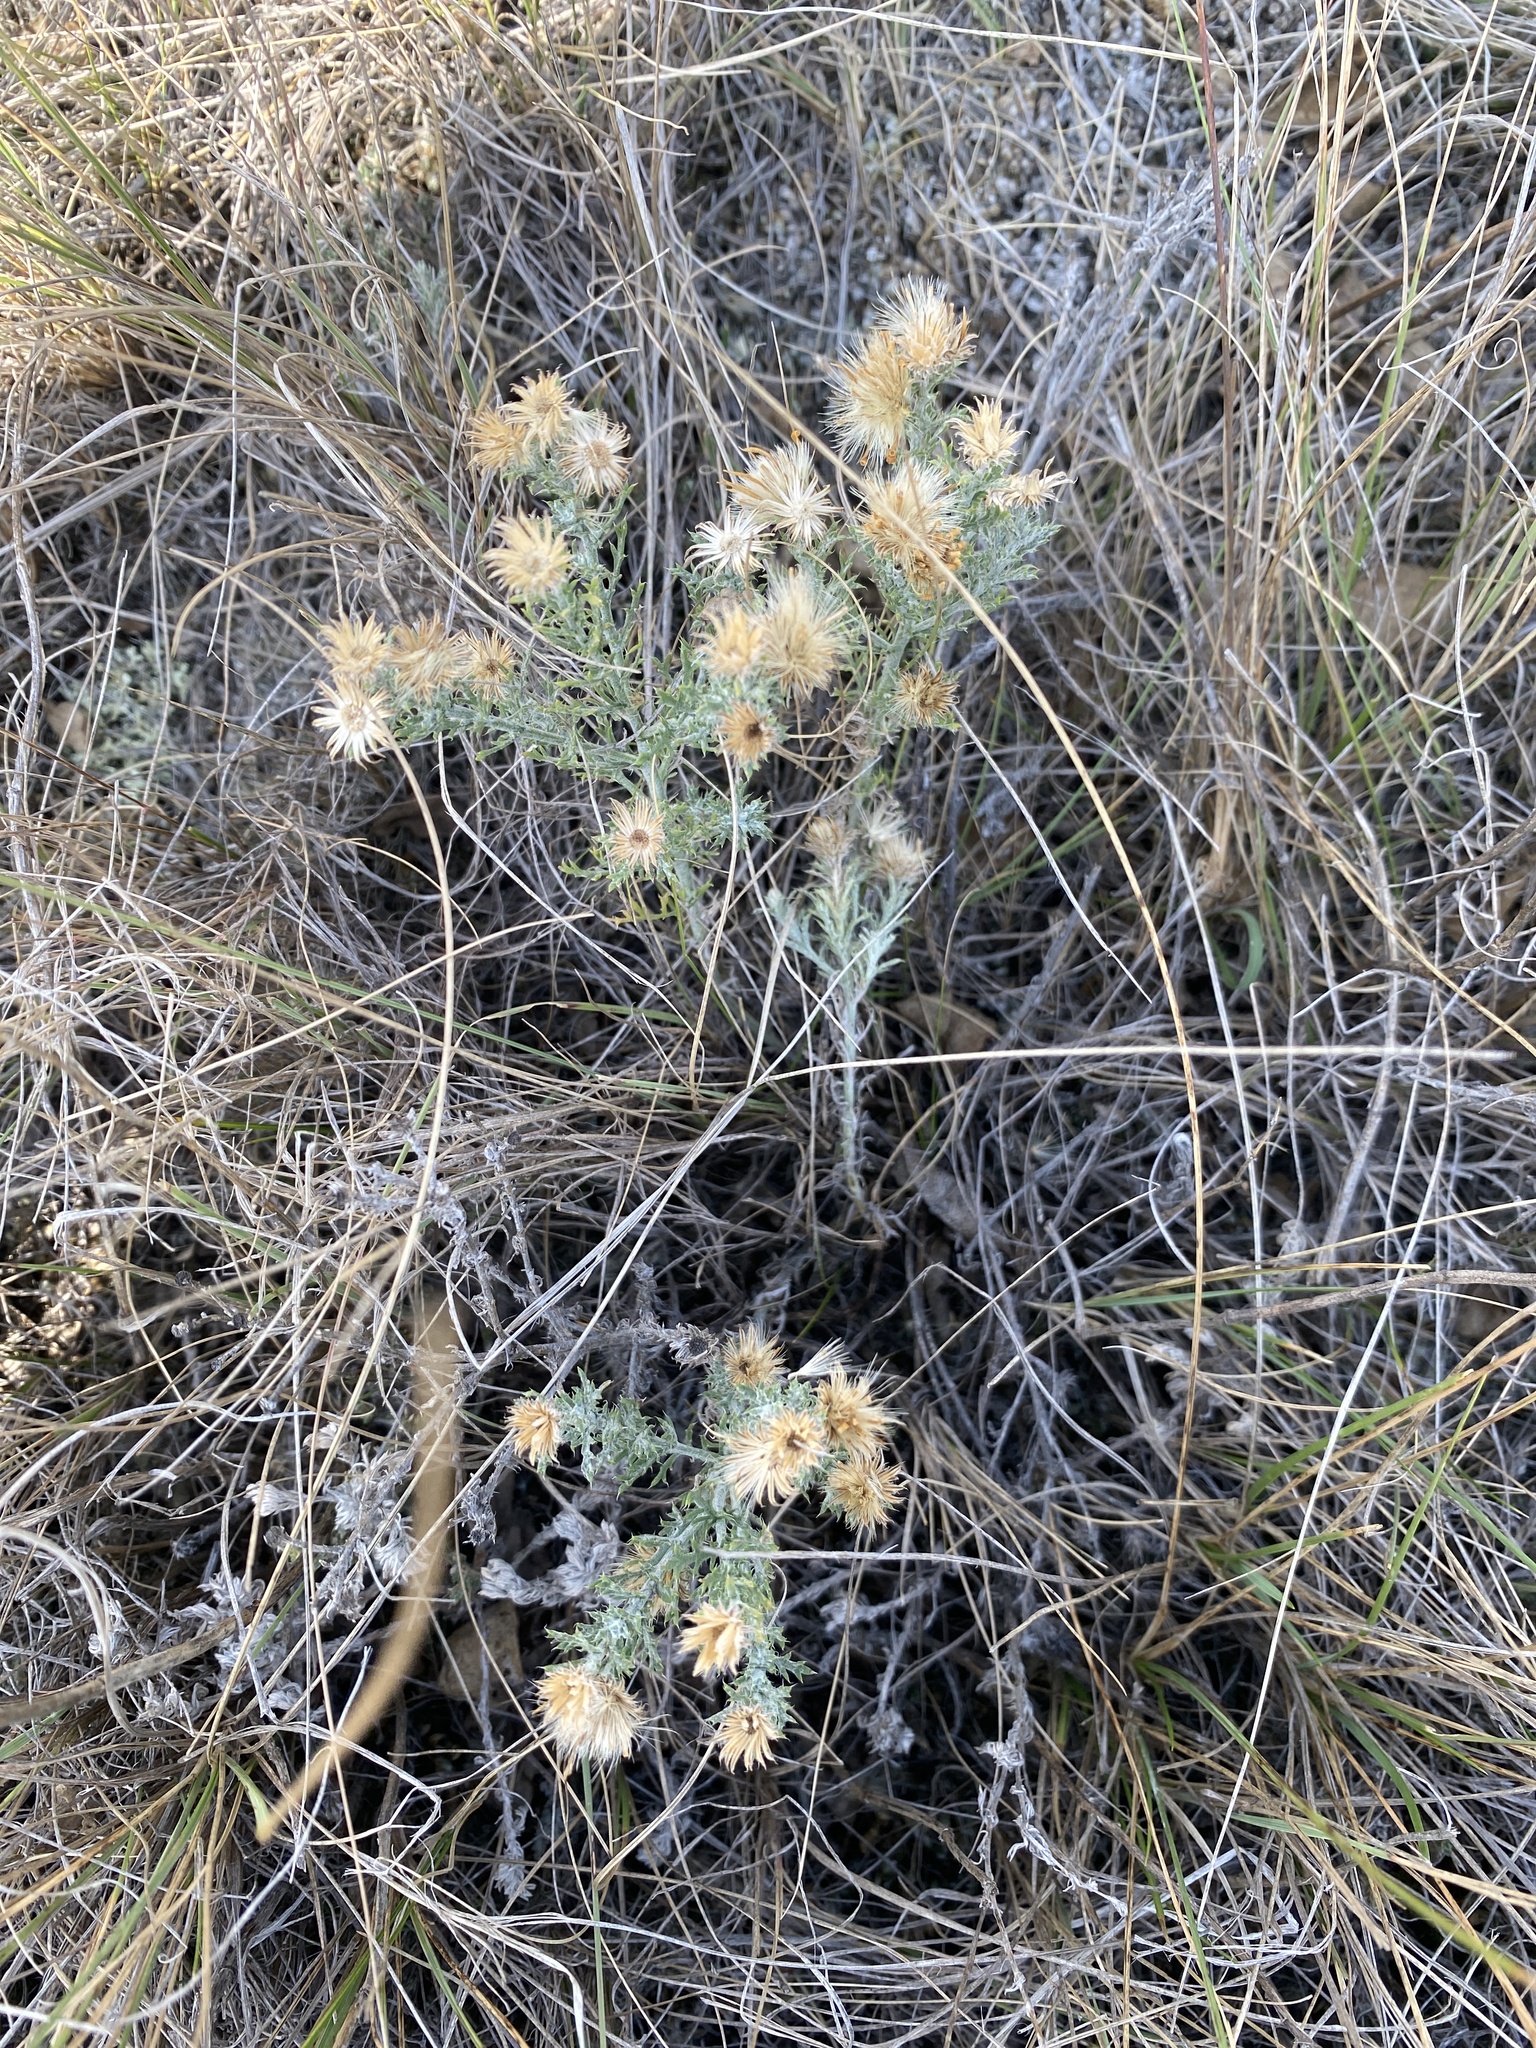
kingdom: Plantae
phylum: Tracheophyta
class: Magnoliopsida
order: Asterales
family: Asteraceae
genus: Xanthisma
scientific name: Xanthisma spinulosum
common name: Spiny goldenweed
